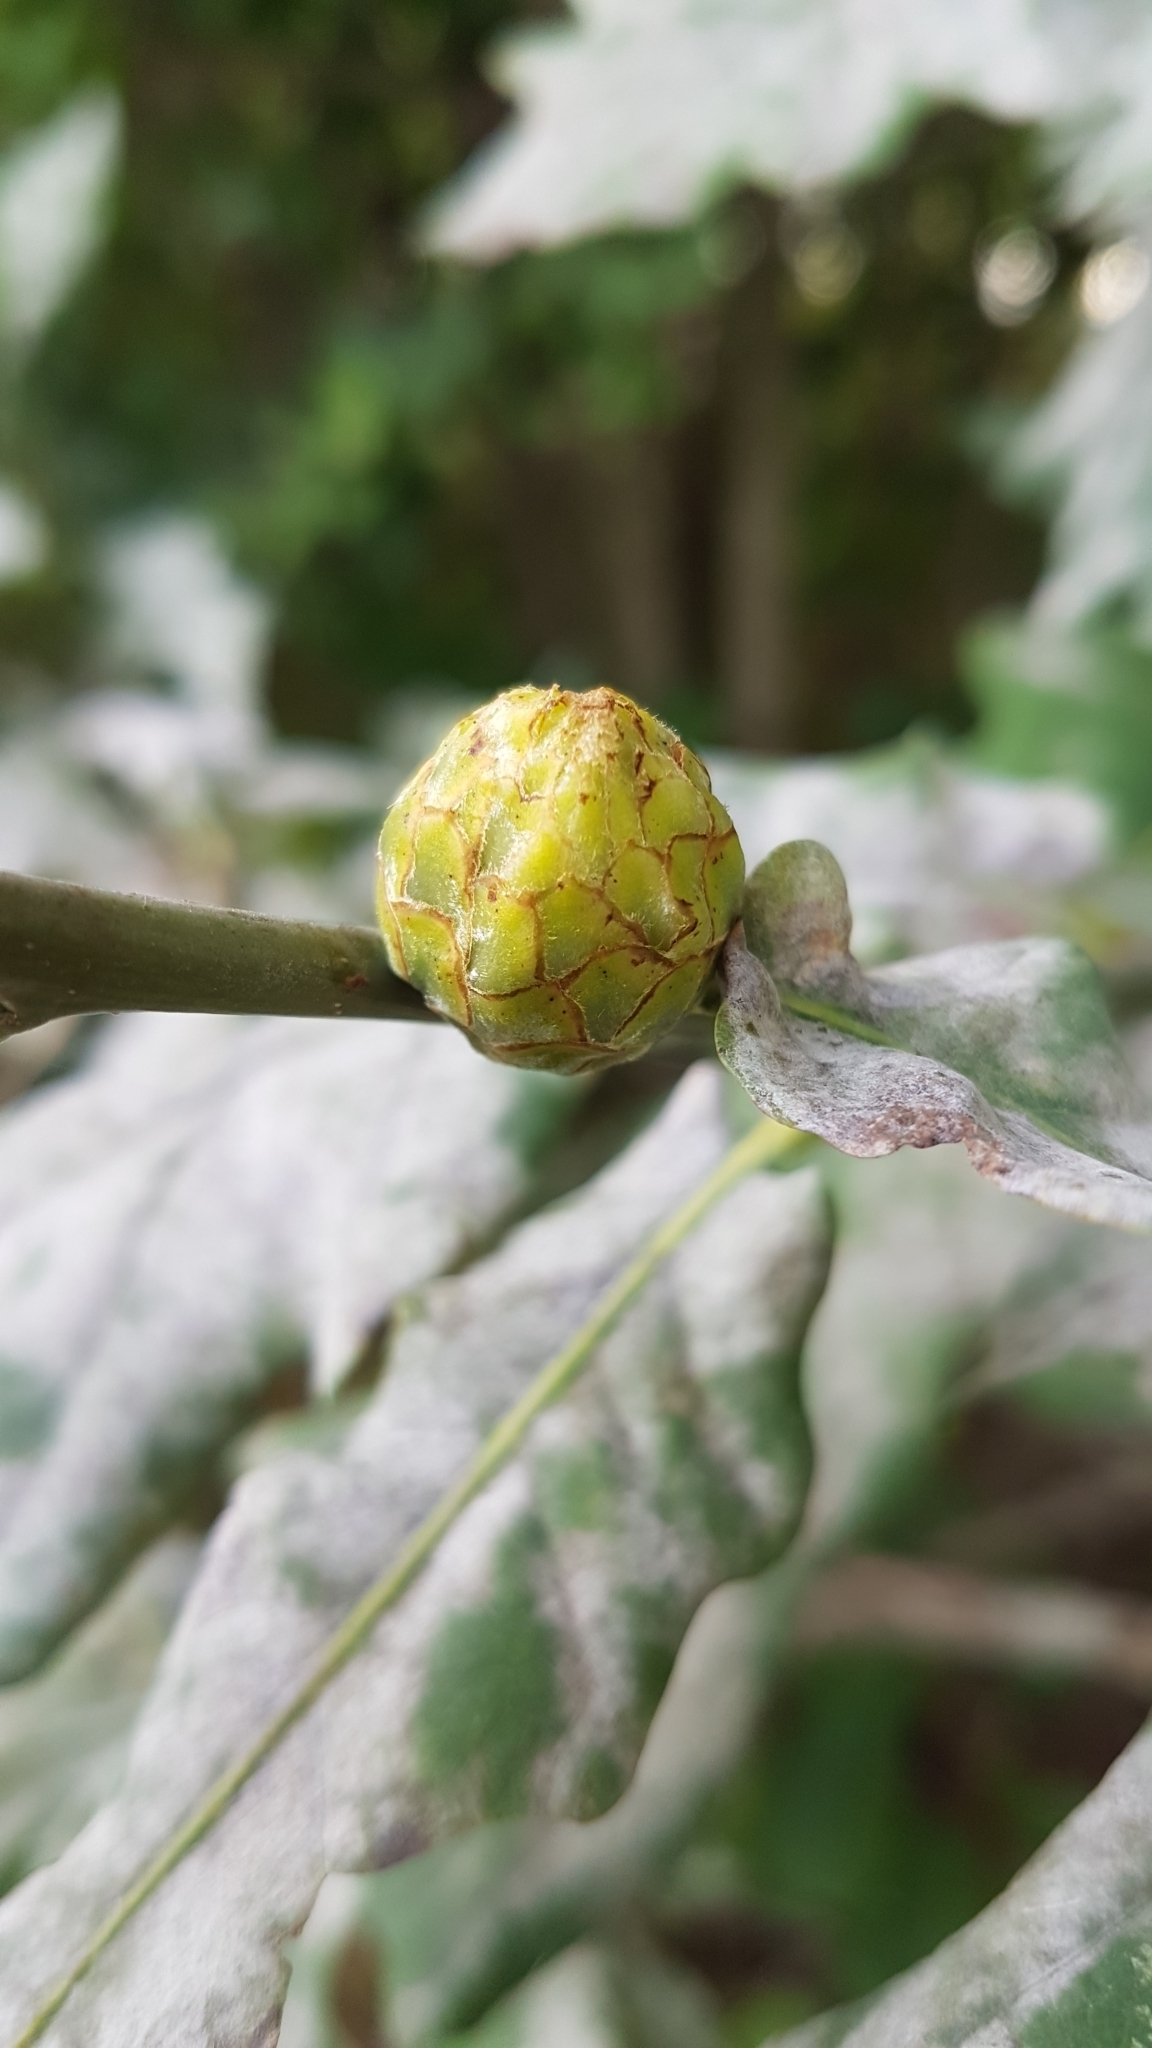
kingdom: Animalia
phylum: Arthropoda
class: Insecta
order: Hymenoptera
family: Cynipidae
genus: Andricus
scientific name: Andricus foecundatrix
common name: Artichoke gall
